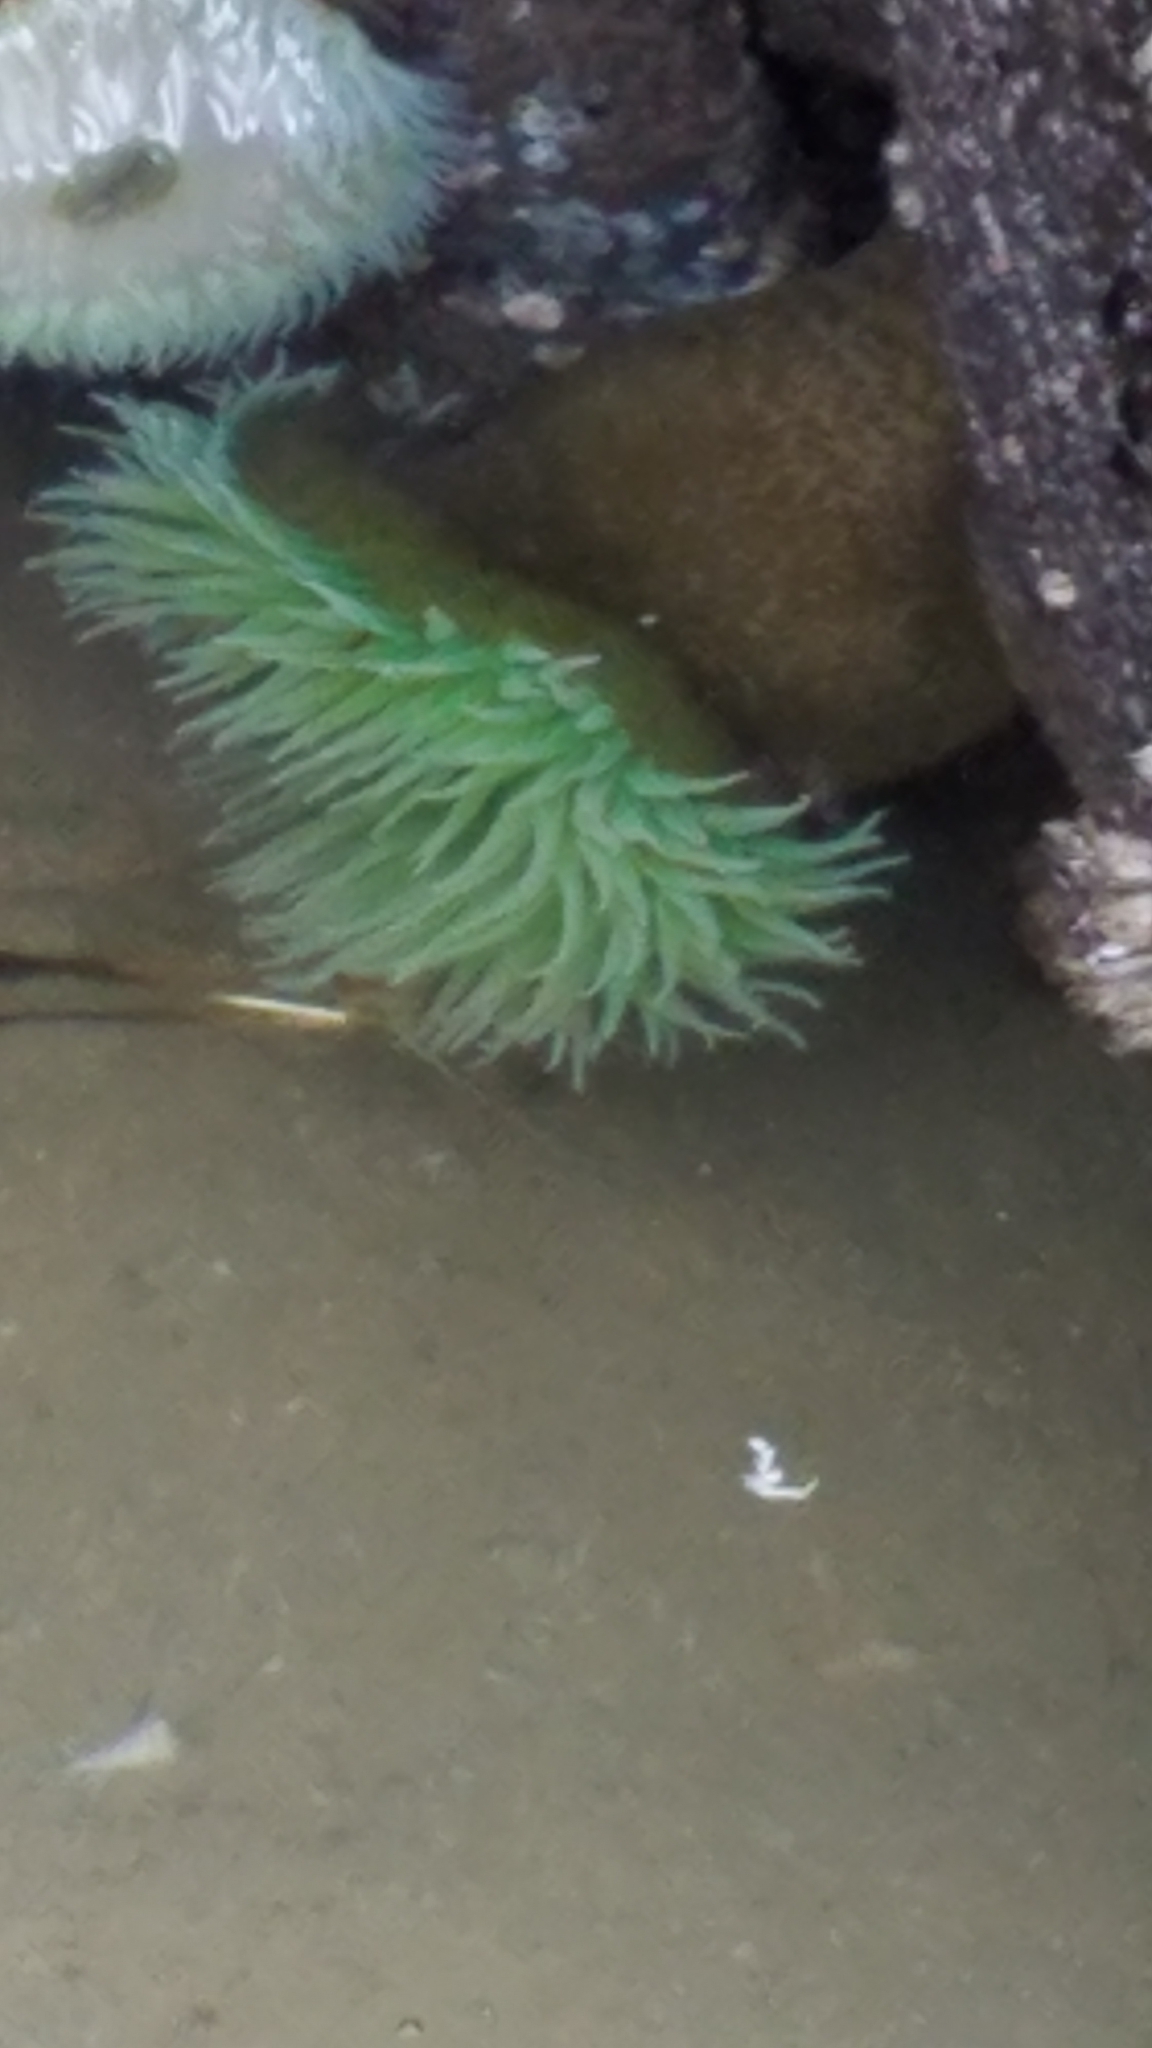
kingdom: Animalia
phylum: Cnidaria
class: Anthozoa
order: Actiniaria
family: Actiniidae
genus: Anthopleura
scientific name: Anthopleura xanthogrammica
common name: Giant green anemone
